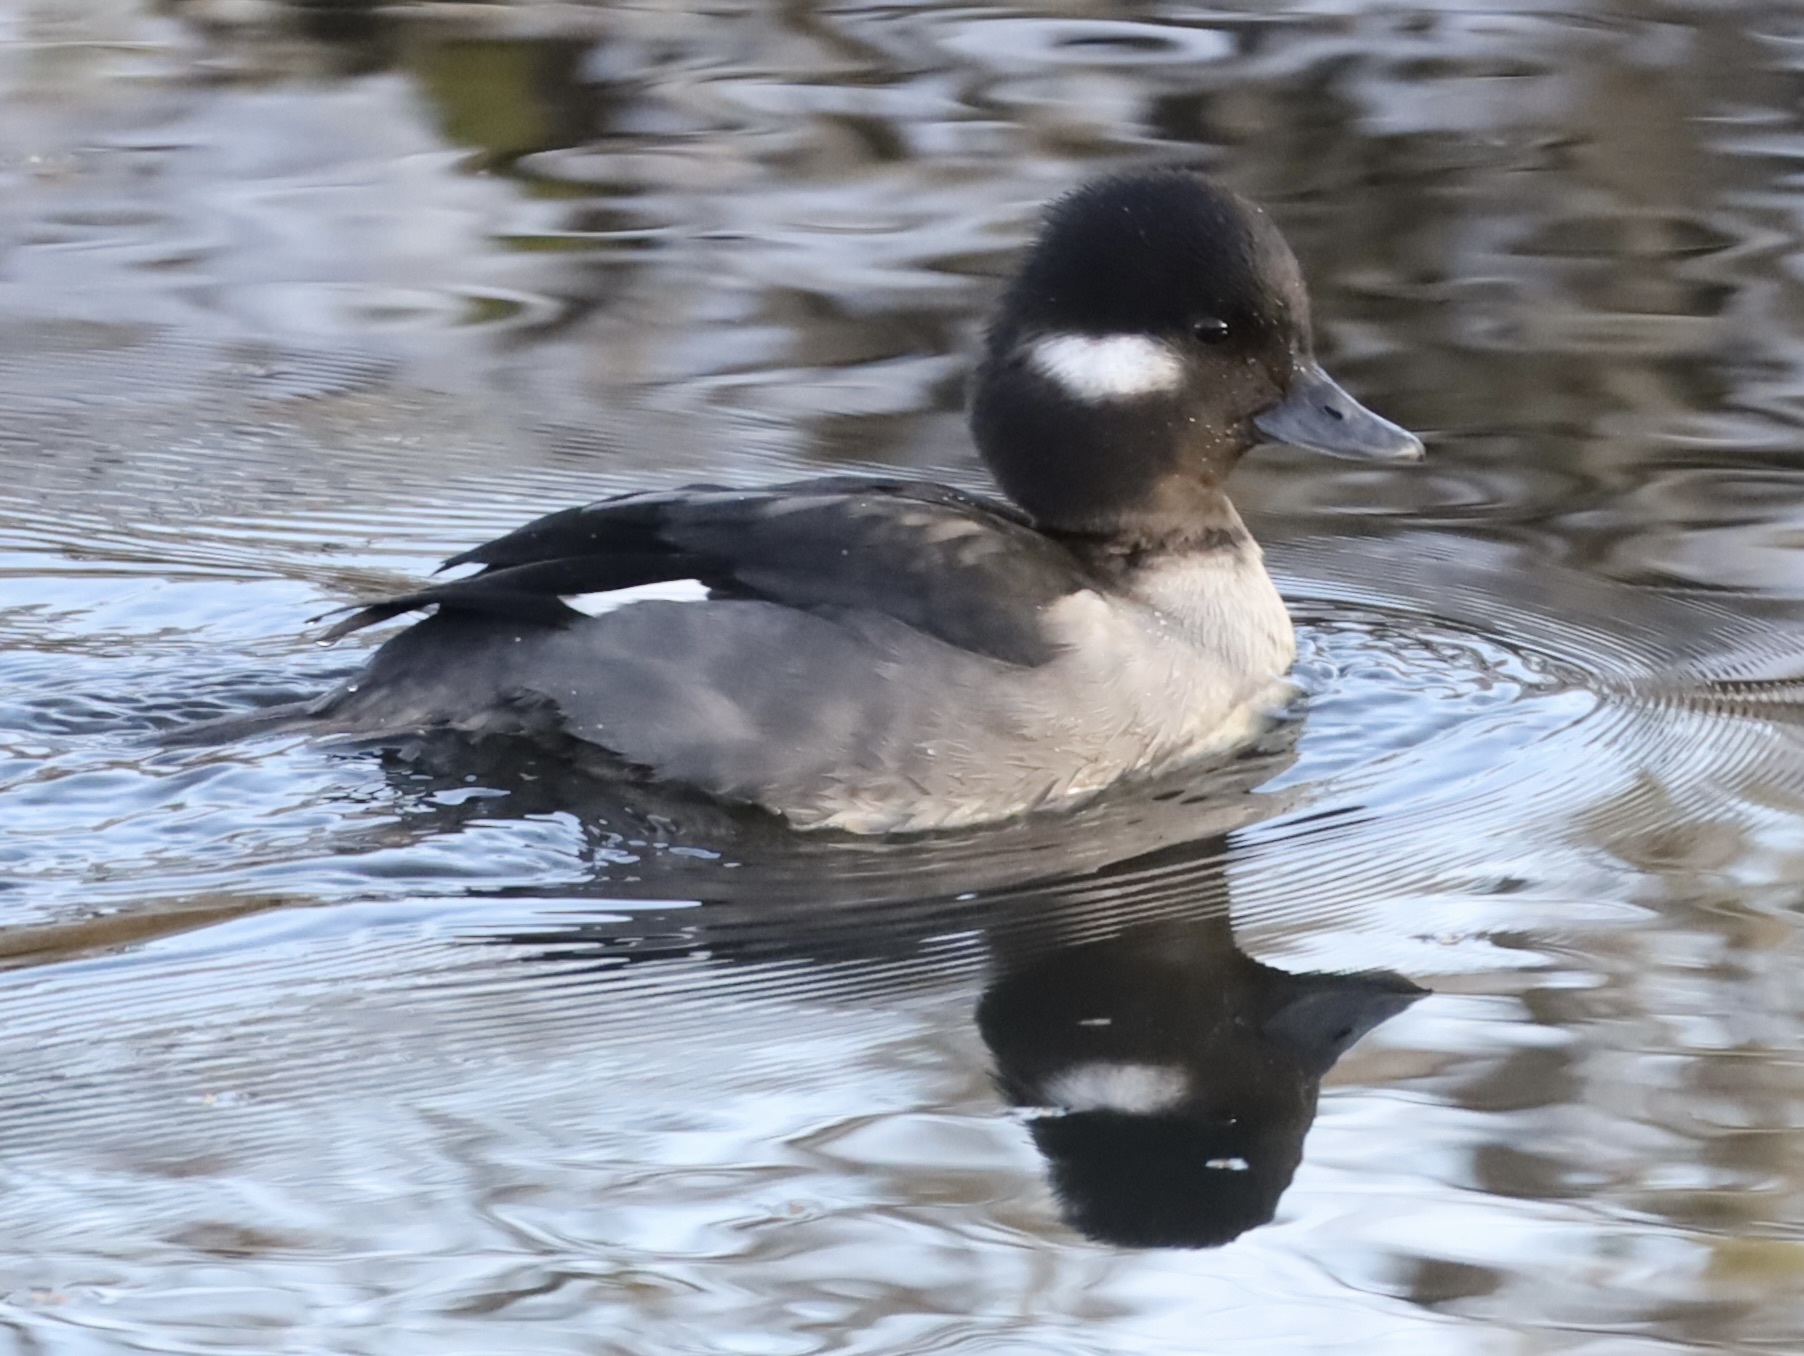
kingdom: Animalia
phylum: Chordata
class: Aves
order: Anseriformes
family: Anatidae
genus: Bucephala
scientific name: Bucephala albeola
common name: Bufflehead
